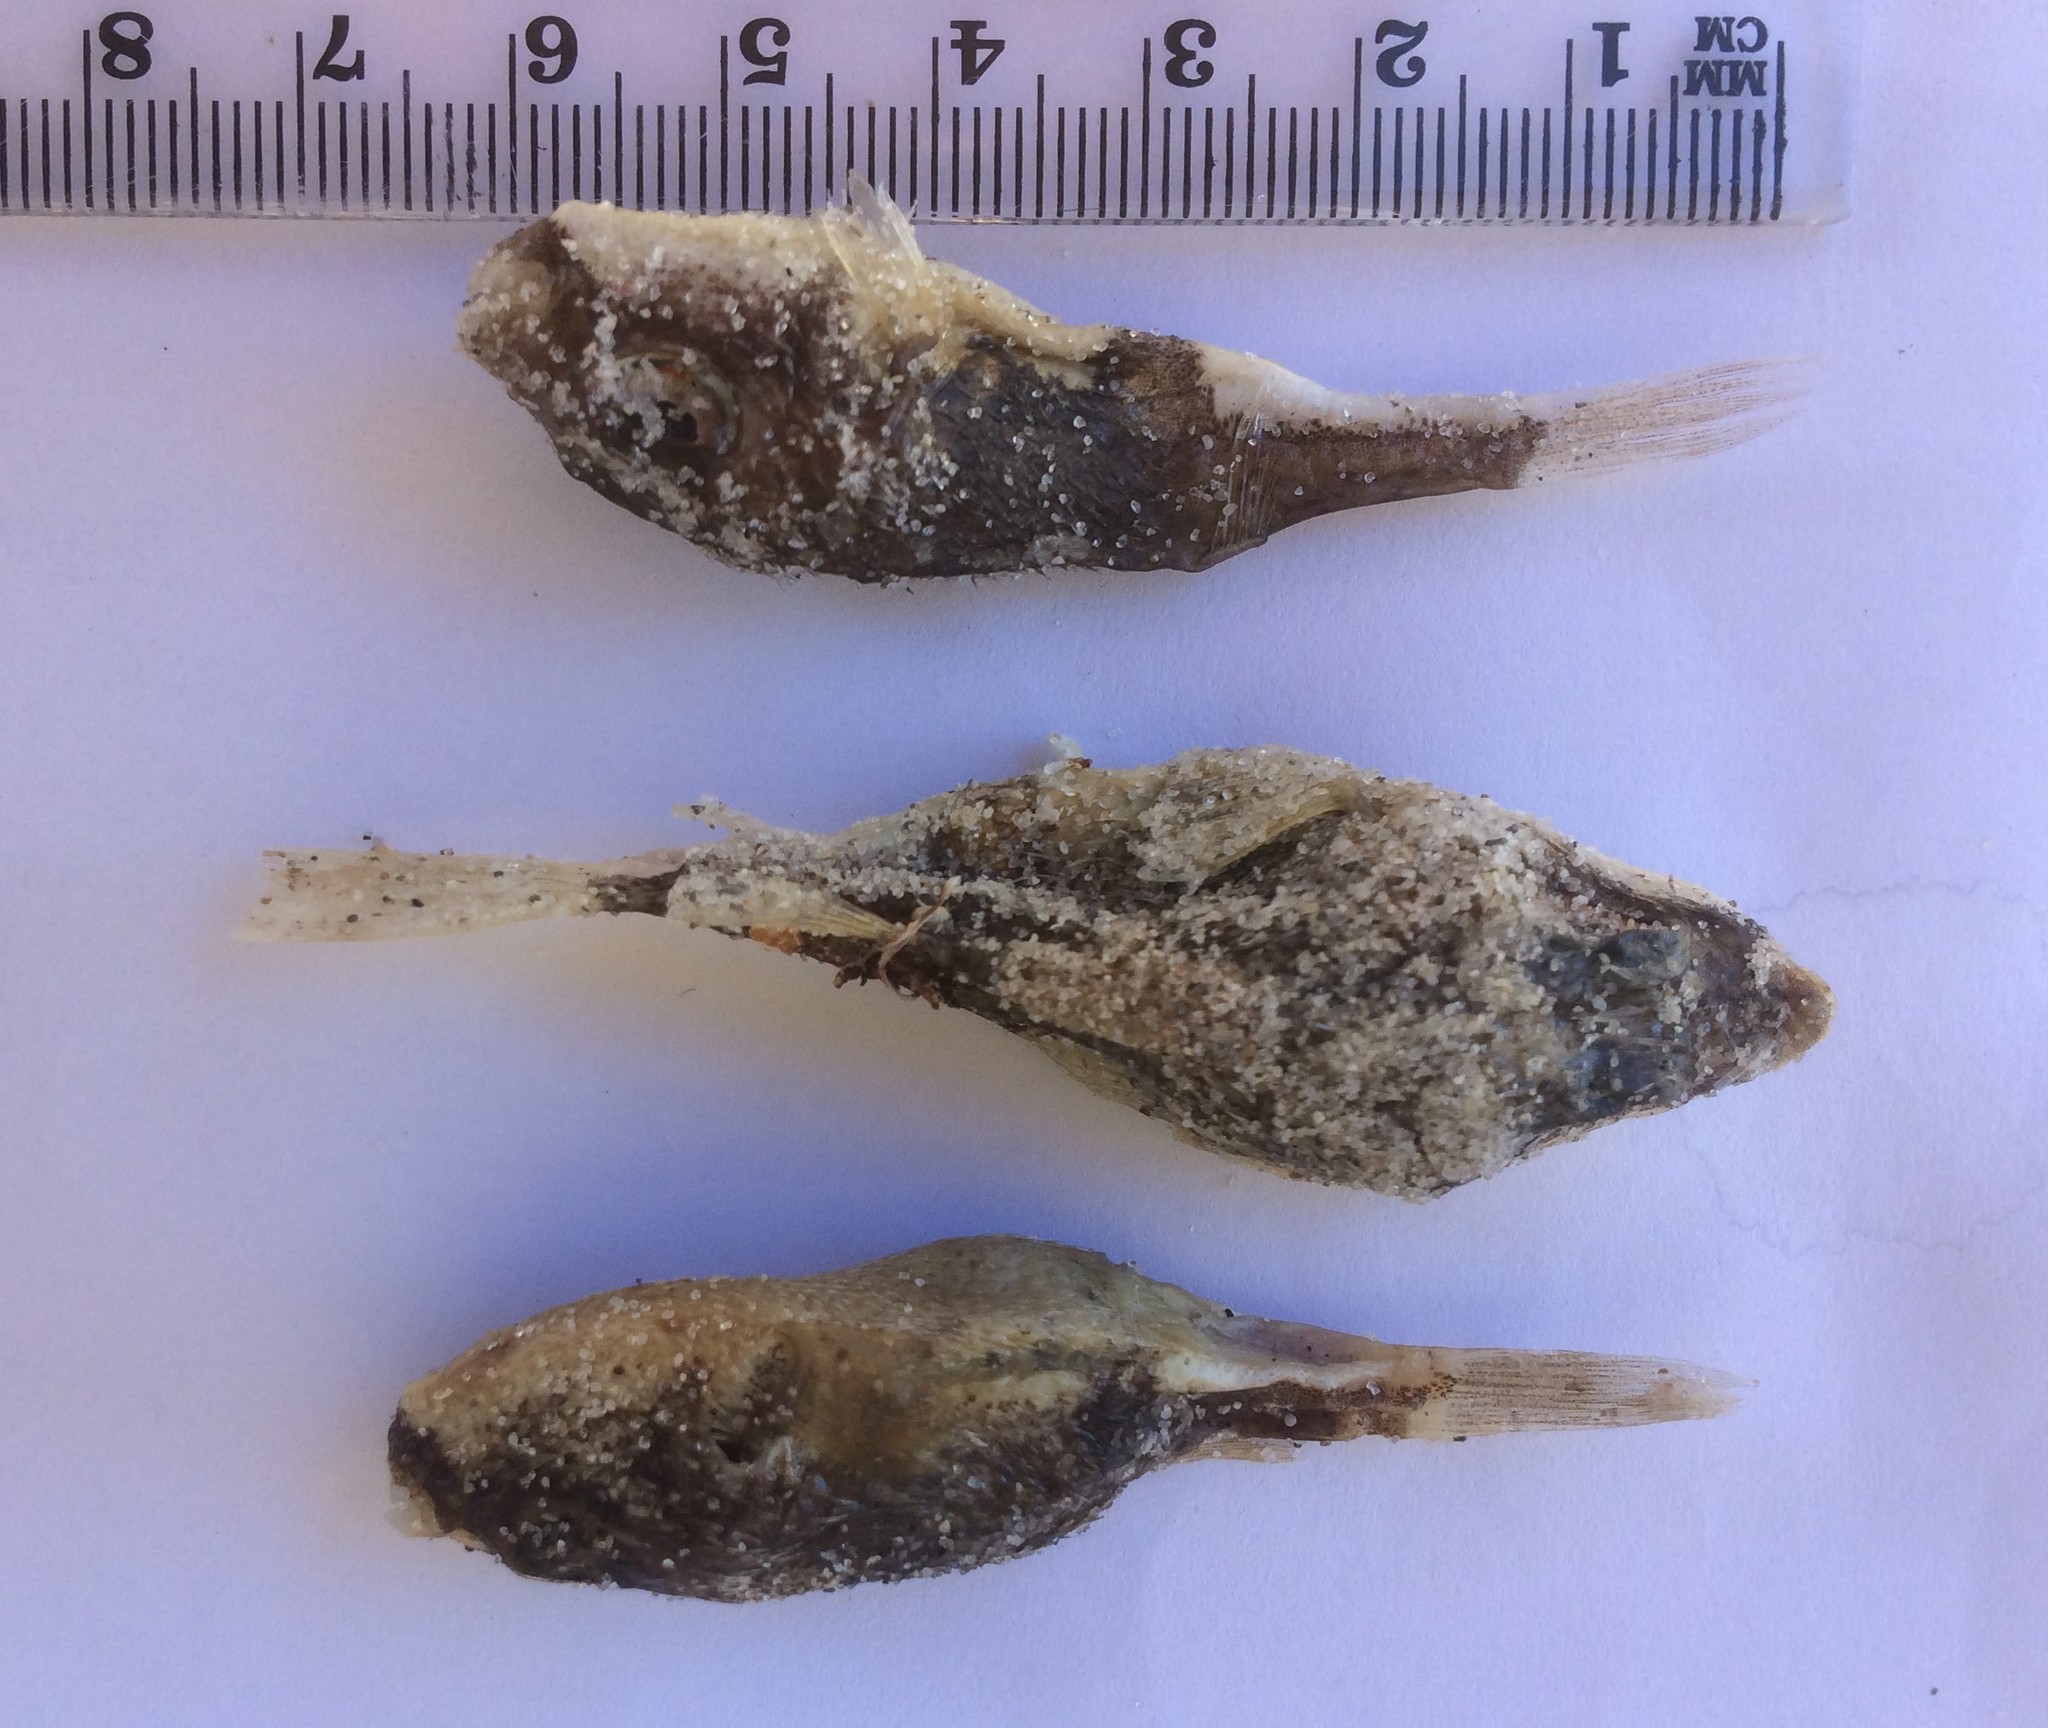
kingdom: Animalia
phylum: Chordata
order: Tetraodontiformes
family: Tetraodontidae
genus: Polyspina
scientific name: Polyspina piosae
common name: Orange-barred pufferfish
